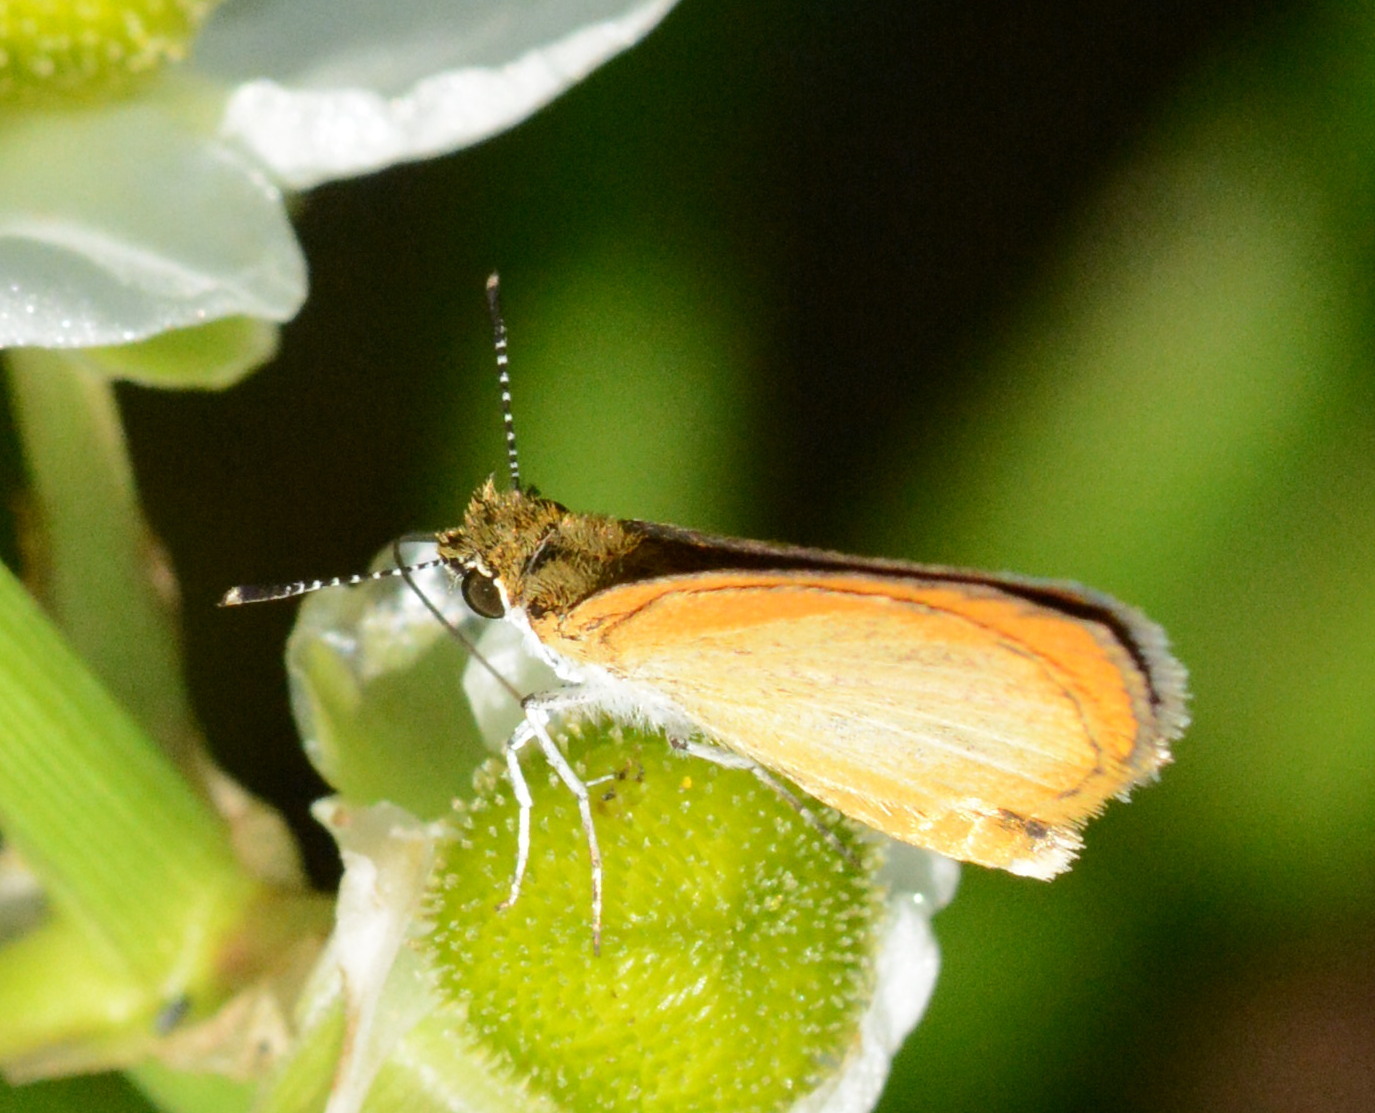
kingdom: Animalia
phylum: Arthropoda
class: Insecta
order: Lepidoptera
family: Hesperiidae
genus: Ancyloxypha
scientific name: Ancyloxypha numitor
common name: Least skipper
